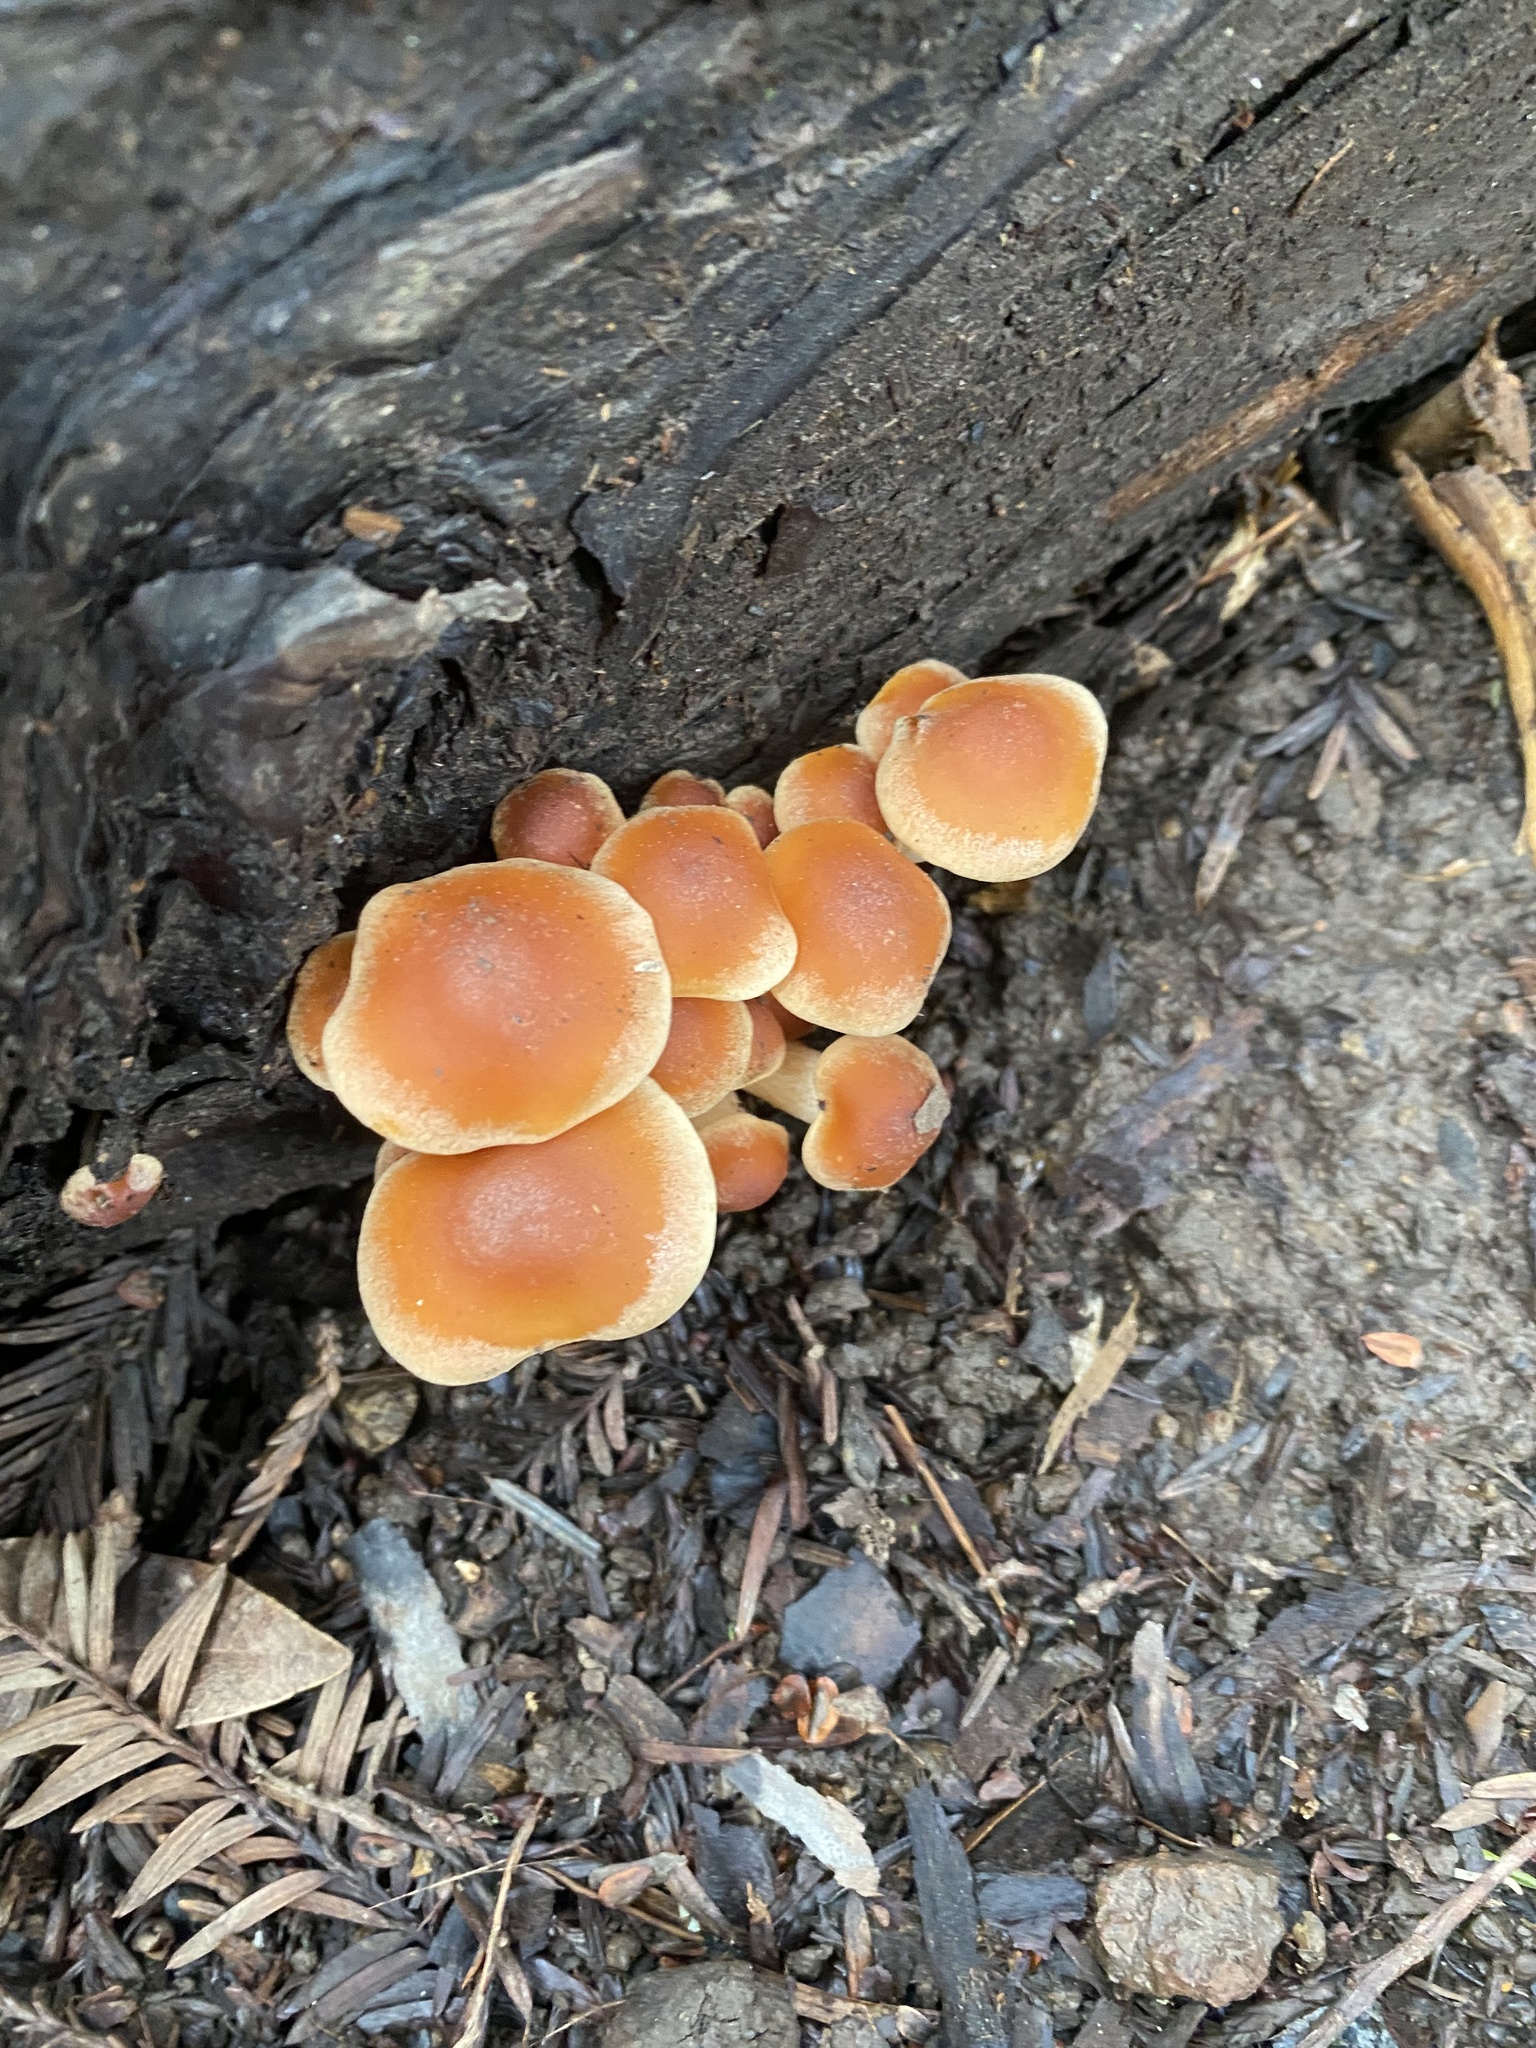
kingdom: Fungi
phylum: Basidiomycota
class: Agaricomycetes
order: Agaricales
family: Strophariaceae
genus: Hypholoma
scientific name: Hypholoma capnoides
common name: Conifer tuft
